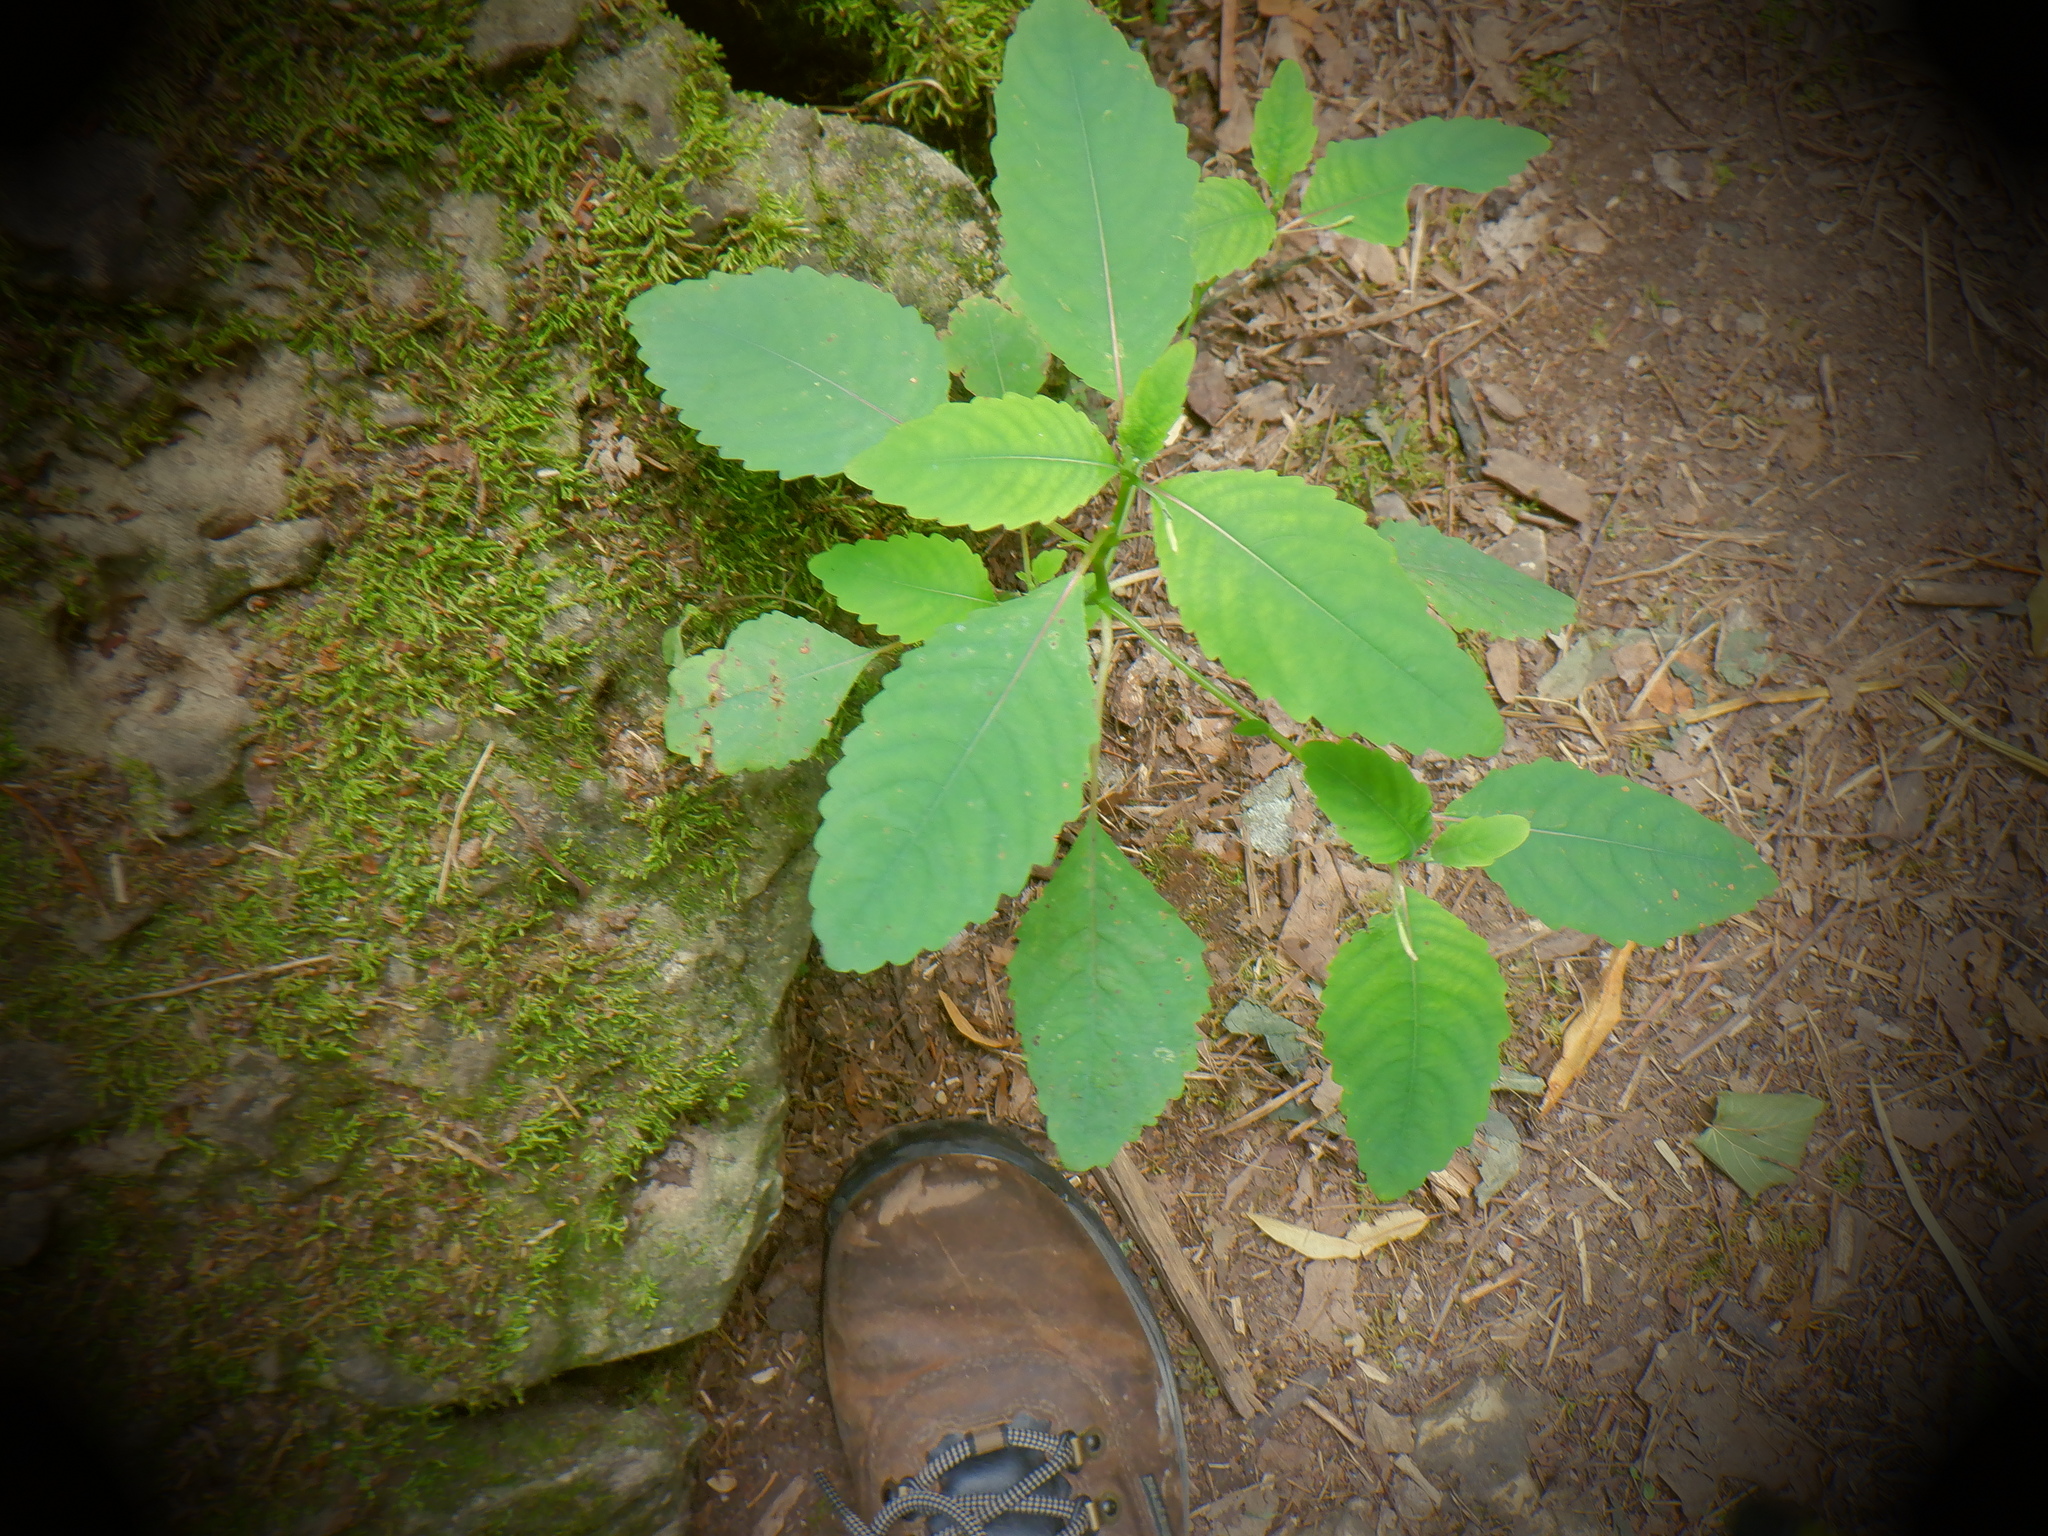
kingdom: Plantae
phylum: Tracheophyta
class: Magnoliopsida
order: Ericales
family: Balsaminaceae
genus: Impatiens
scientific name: Impatiens pallida
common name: Pale snapweed
